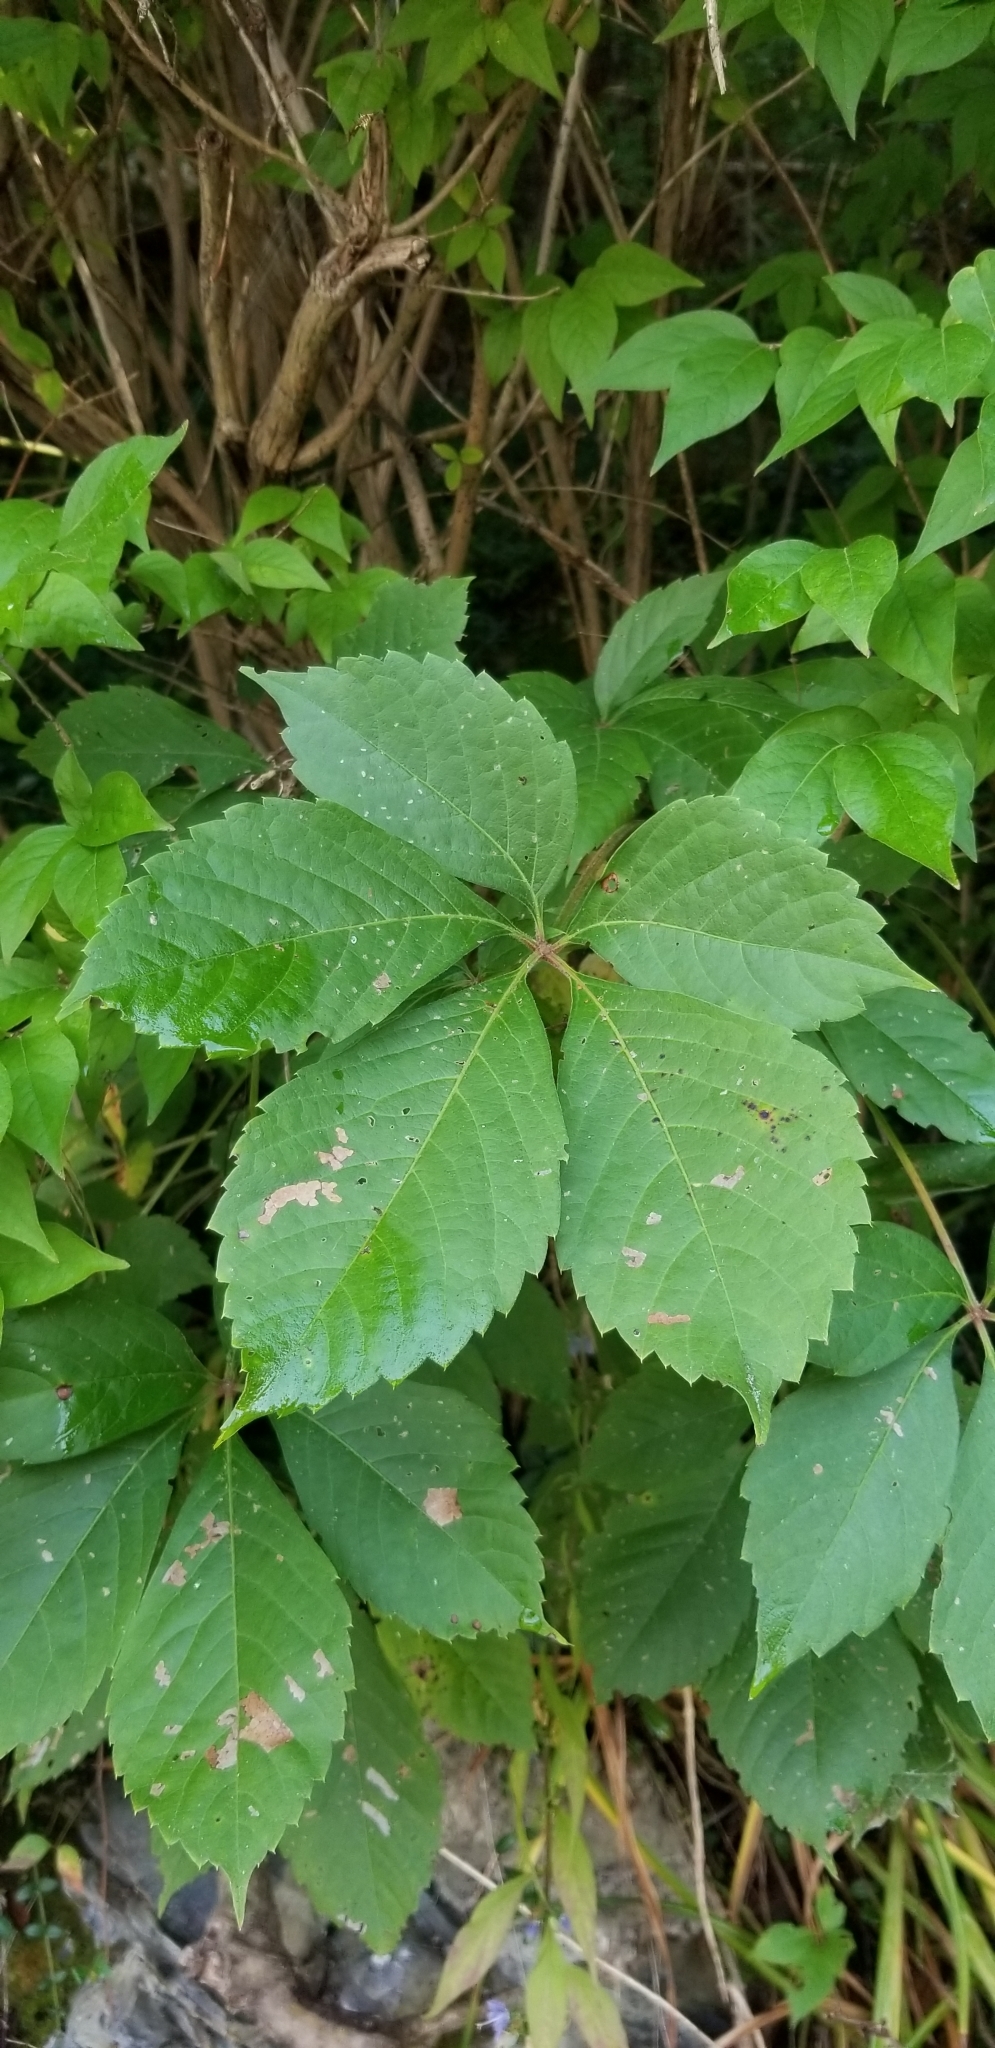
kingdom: Plantae
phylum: Tracheophyta
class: Magnoliopsida
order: Vitales
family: Vitaceae
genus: Parthenocissus
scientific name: Parthenocissus quinquefolia
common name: Virginia-creeper
